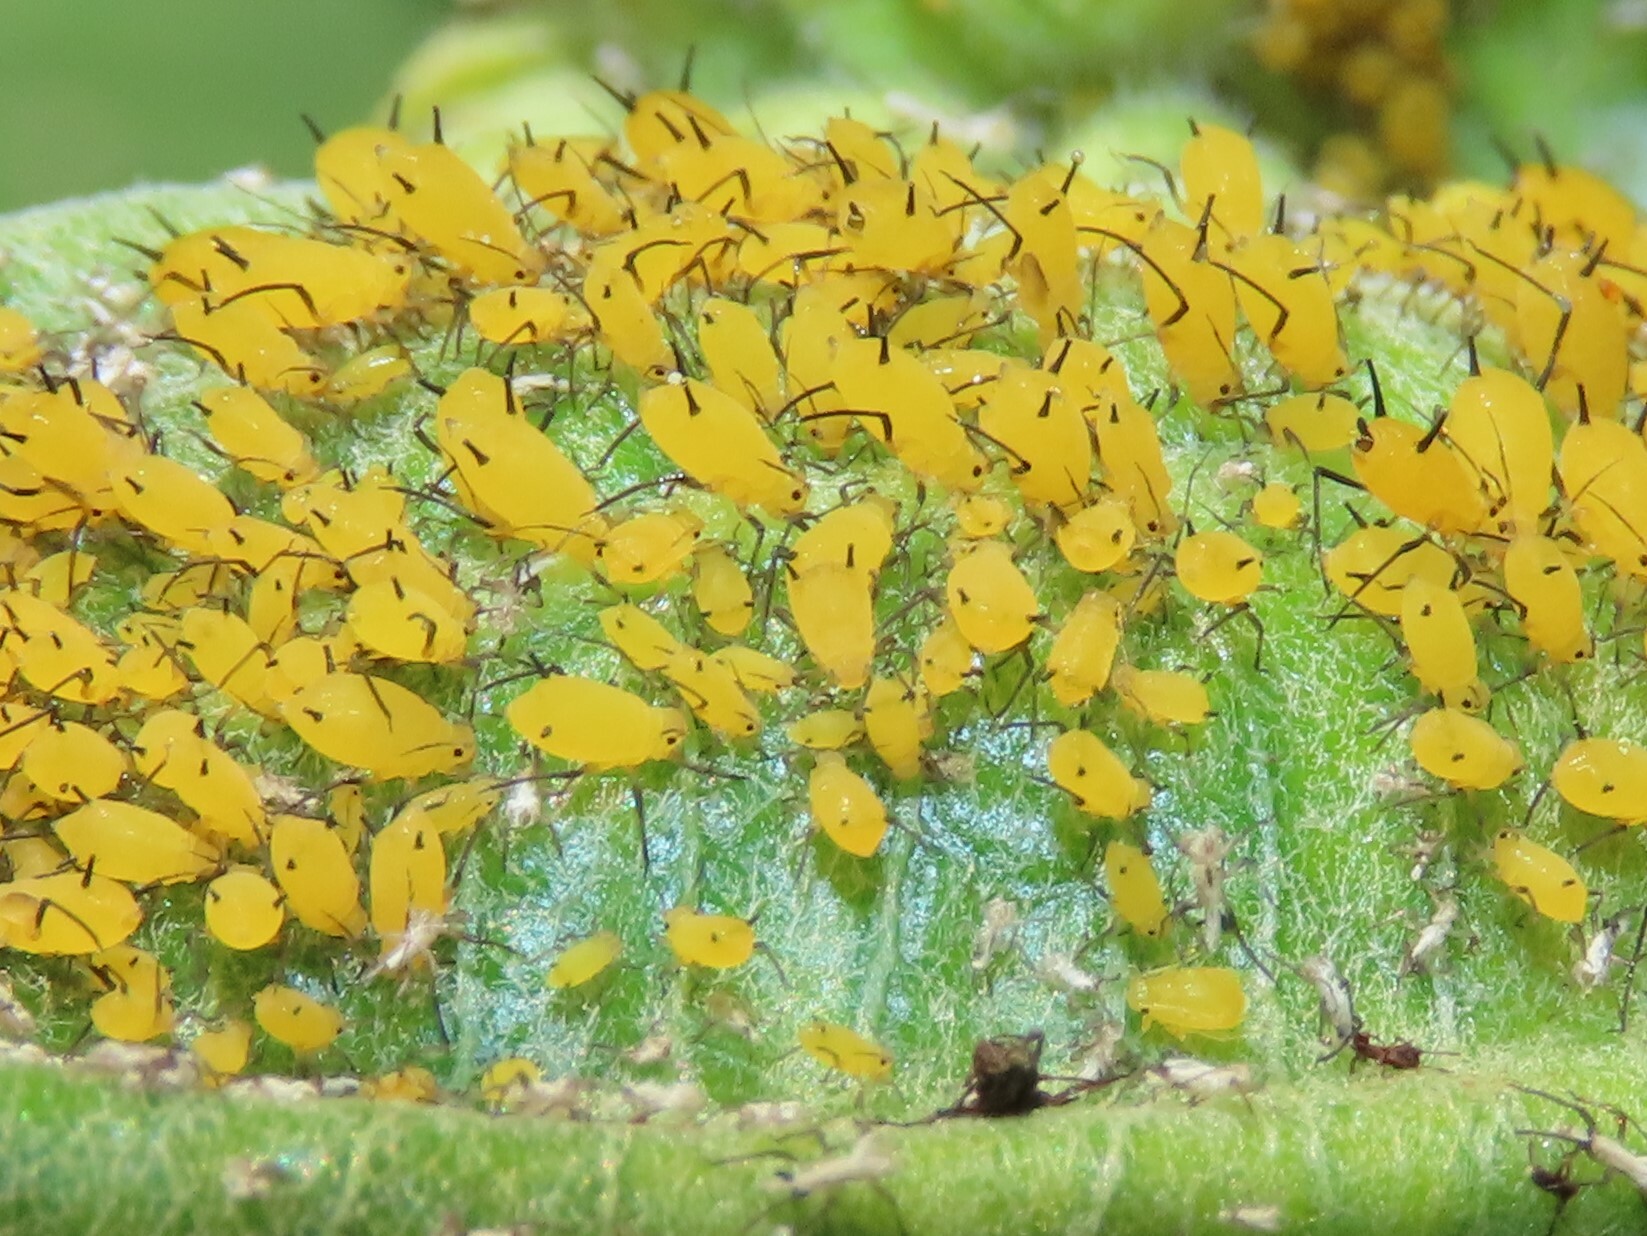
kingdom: Animalia
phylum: Arthropoda
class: Insecta
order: Hemiptera
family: Aphididae
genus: Aphis
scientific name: Aphis nerii
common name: Oleander aphid
